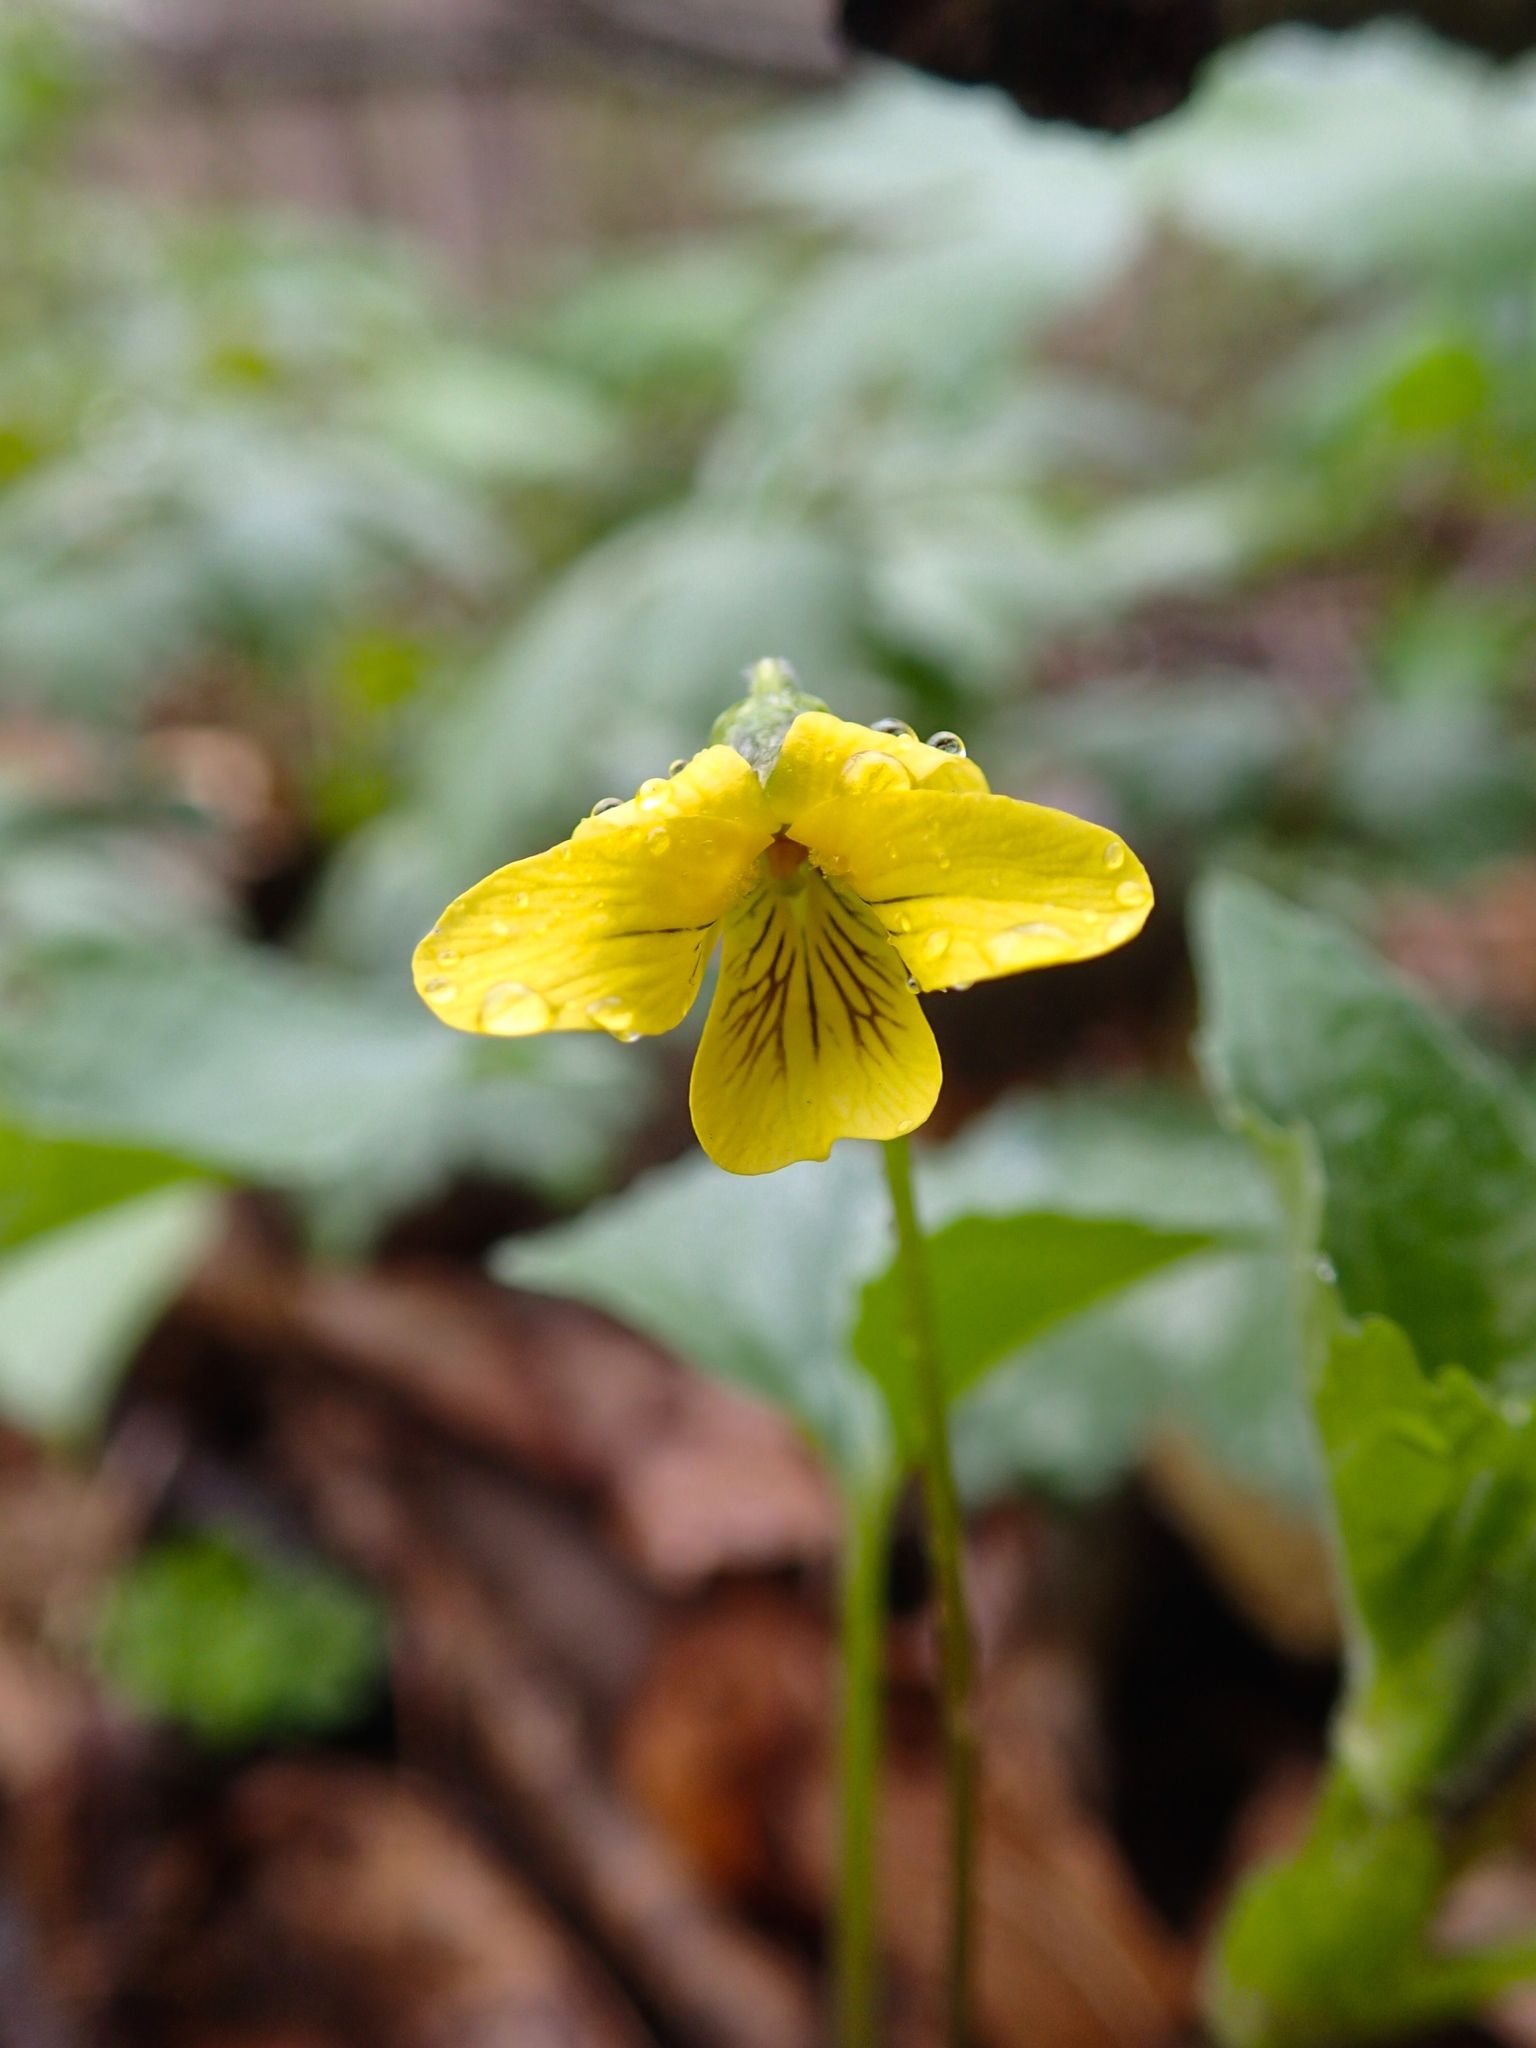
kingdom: Plantae
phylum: Tracheophyta
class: Magnoliopsida
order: Malpighiales
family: Violaceae
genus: Viola
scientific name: Viola eriocarpa
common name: Smooth yellow violet
